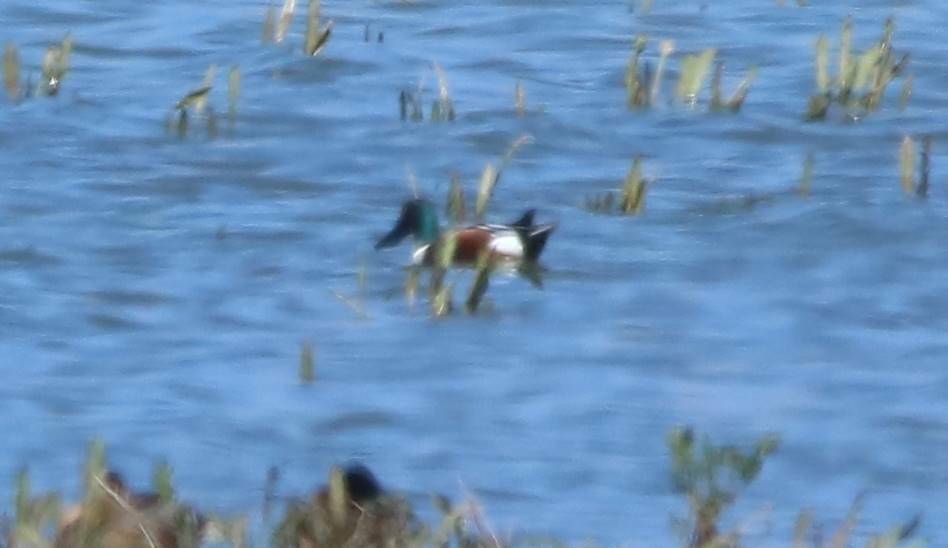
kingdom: Animalia
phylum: Chordata
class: Aves
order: Anseriformes
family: Anatidae
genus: Spatula
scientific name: Spatula clypeata
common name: Northern shoveler
